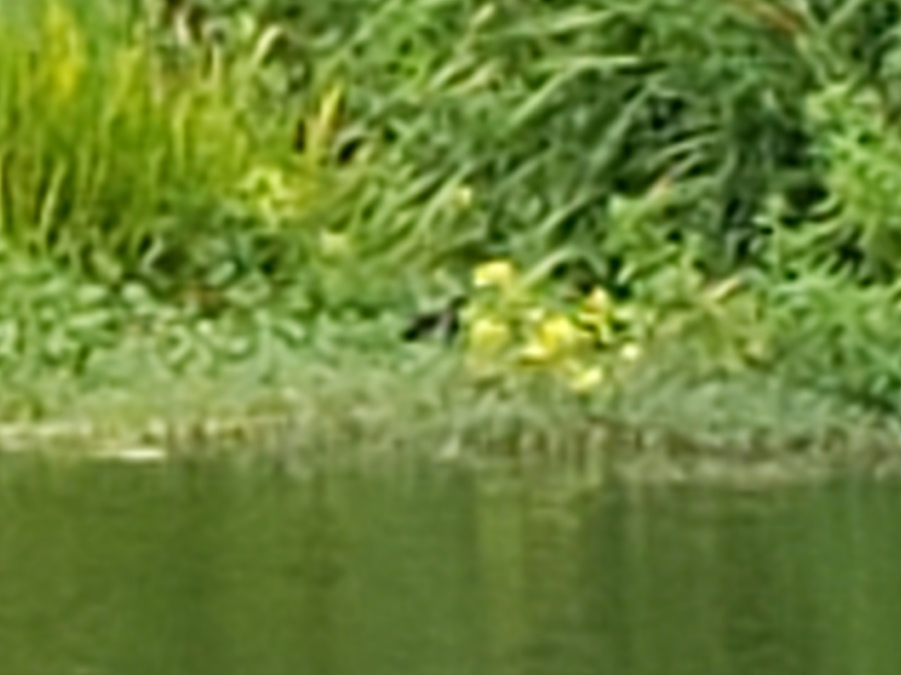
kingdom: Animalia
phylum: Chordata
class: Aves
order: Gruiformes
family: Rallidae
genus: Gallinula
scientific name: Gallinula chloropus
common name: Common moorhen
